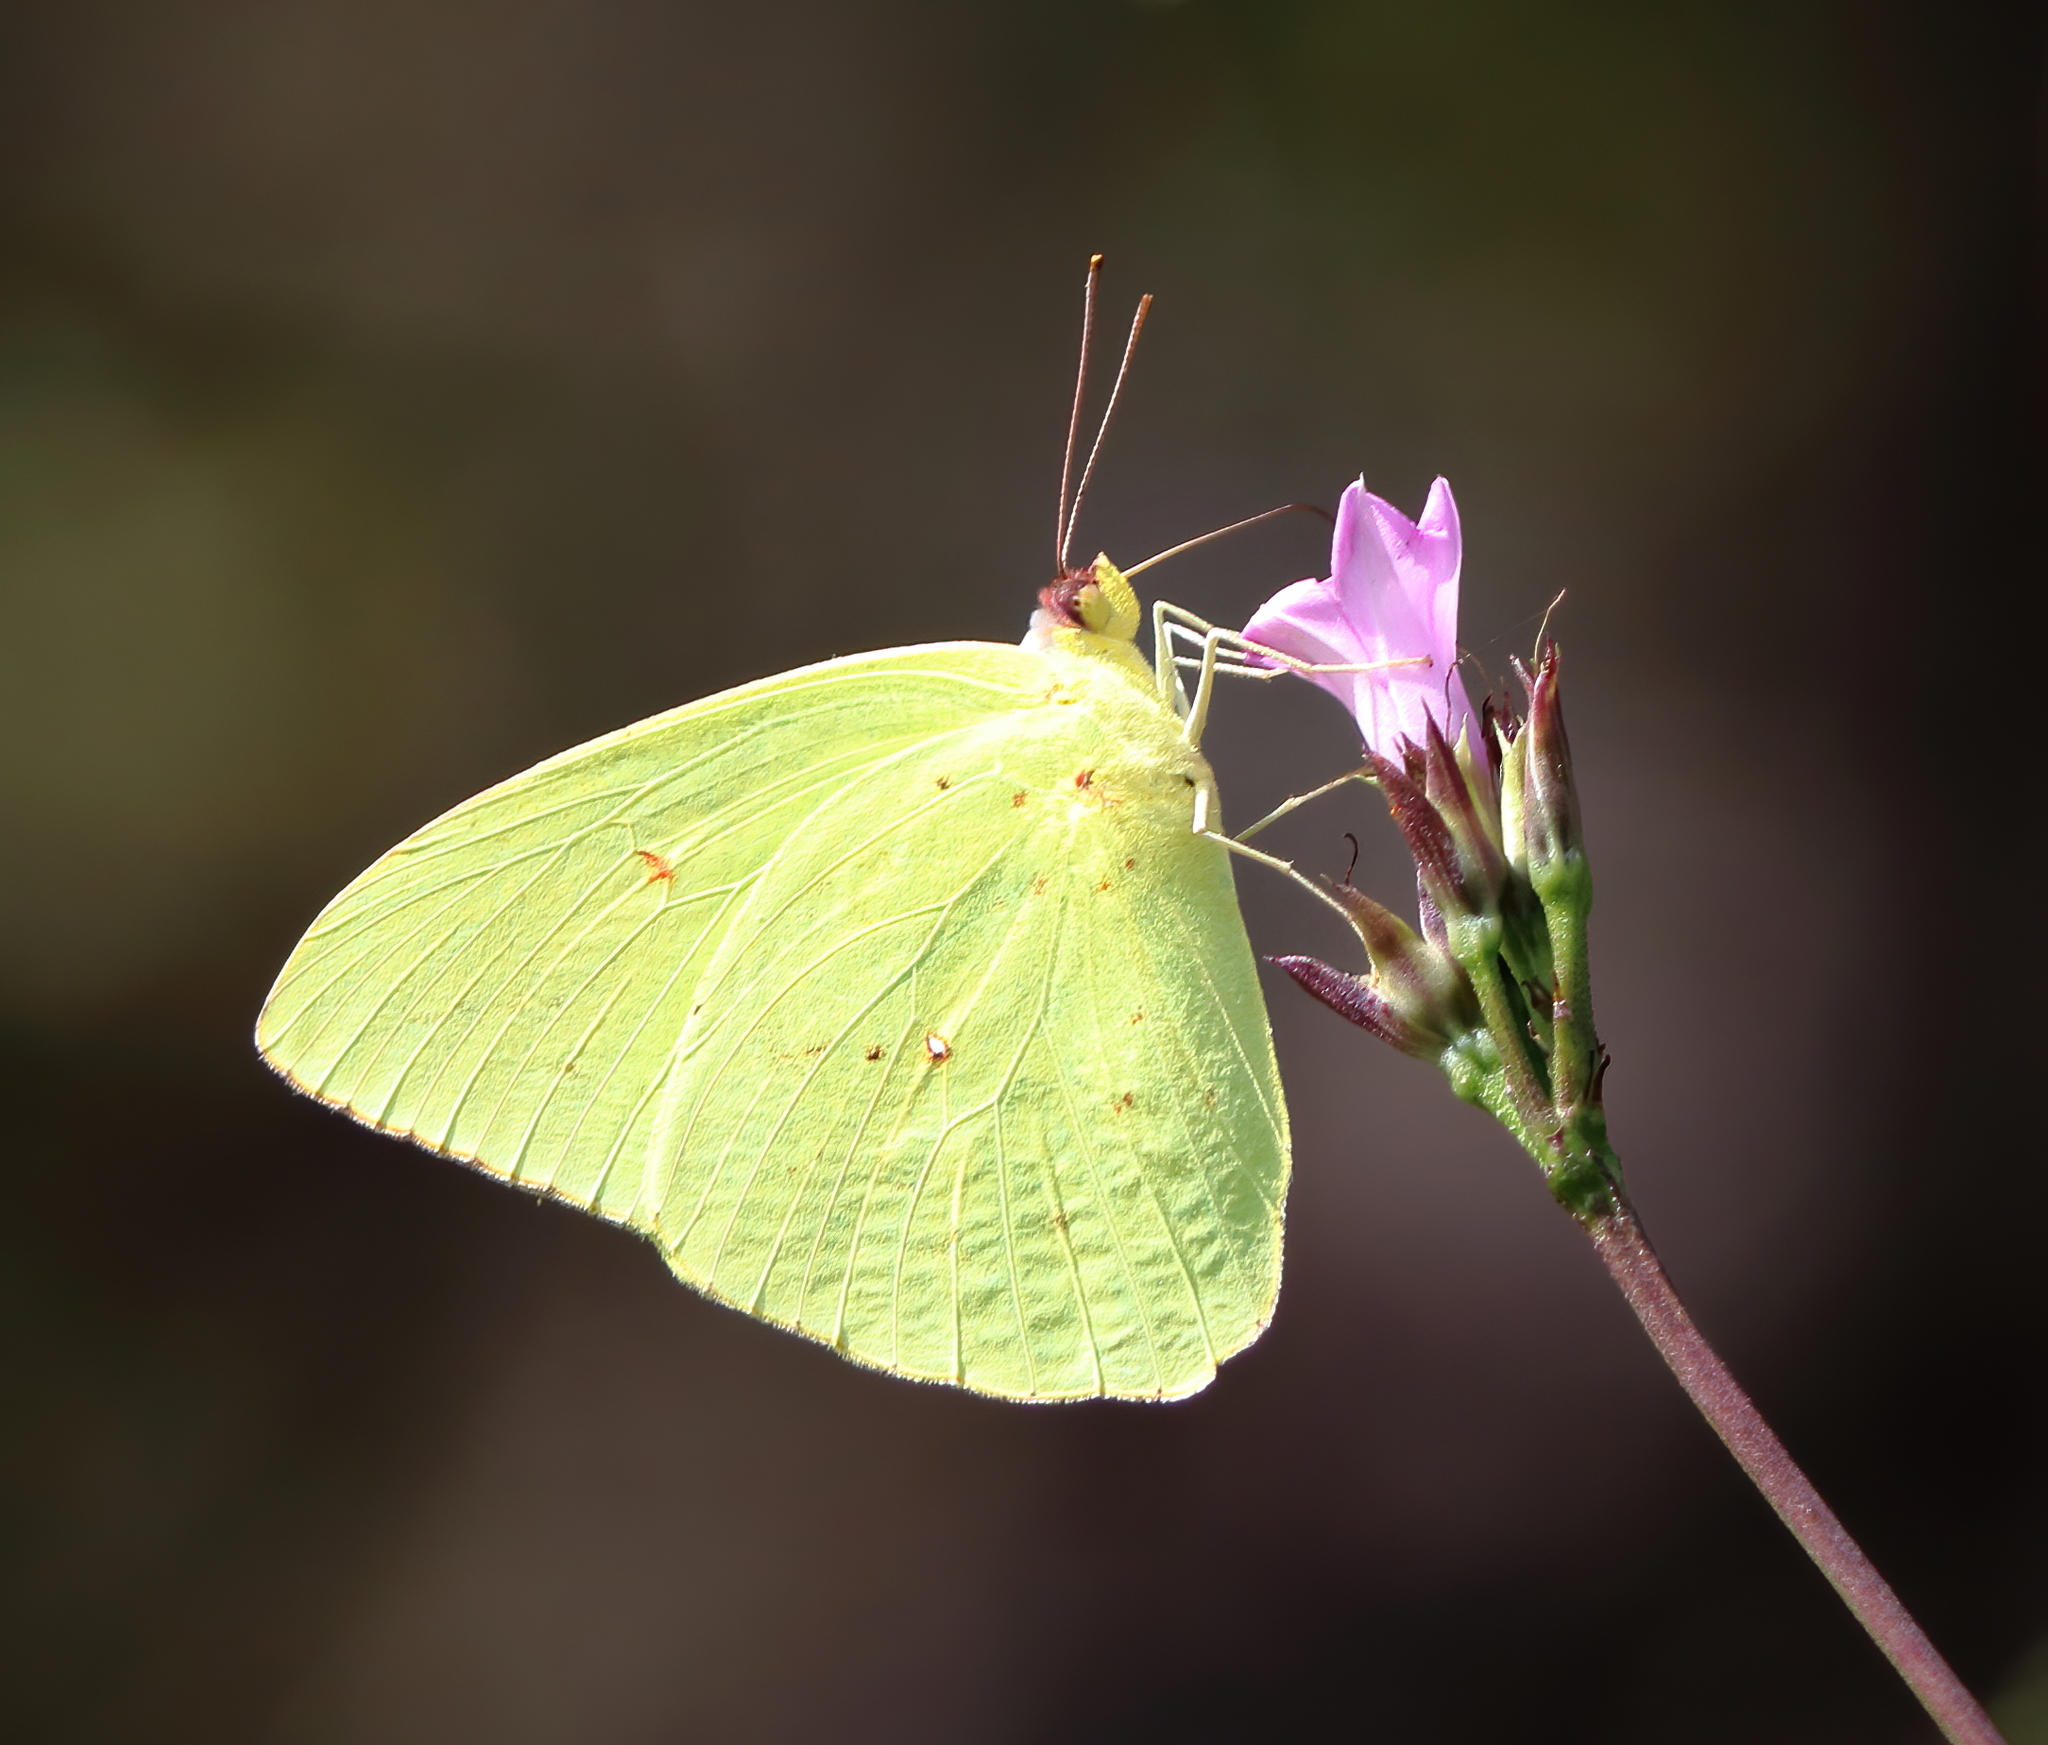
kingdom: Animalia
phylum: Arthropoda
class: Insecta
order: Lepidoptera
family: Pieridae
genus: Phoebis
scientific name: Phoebis sennae
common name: Cloudless sulphur
